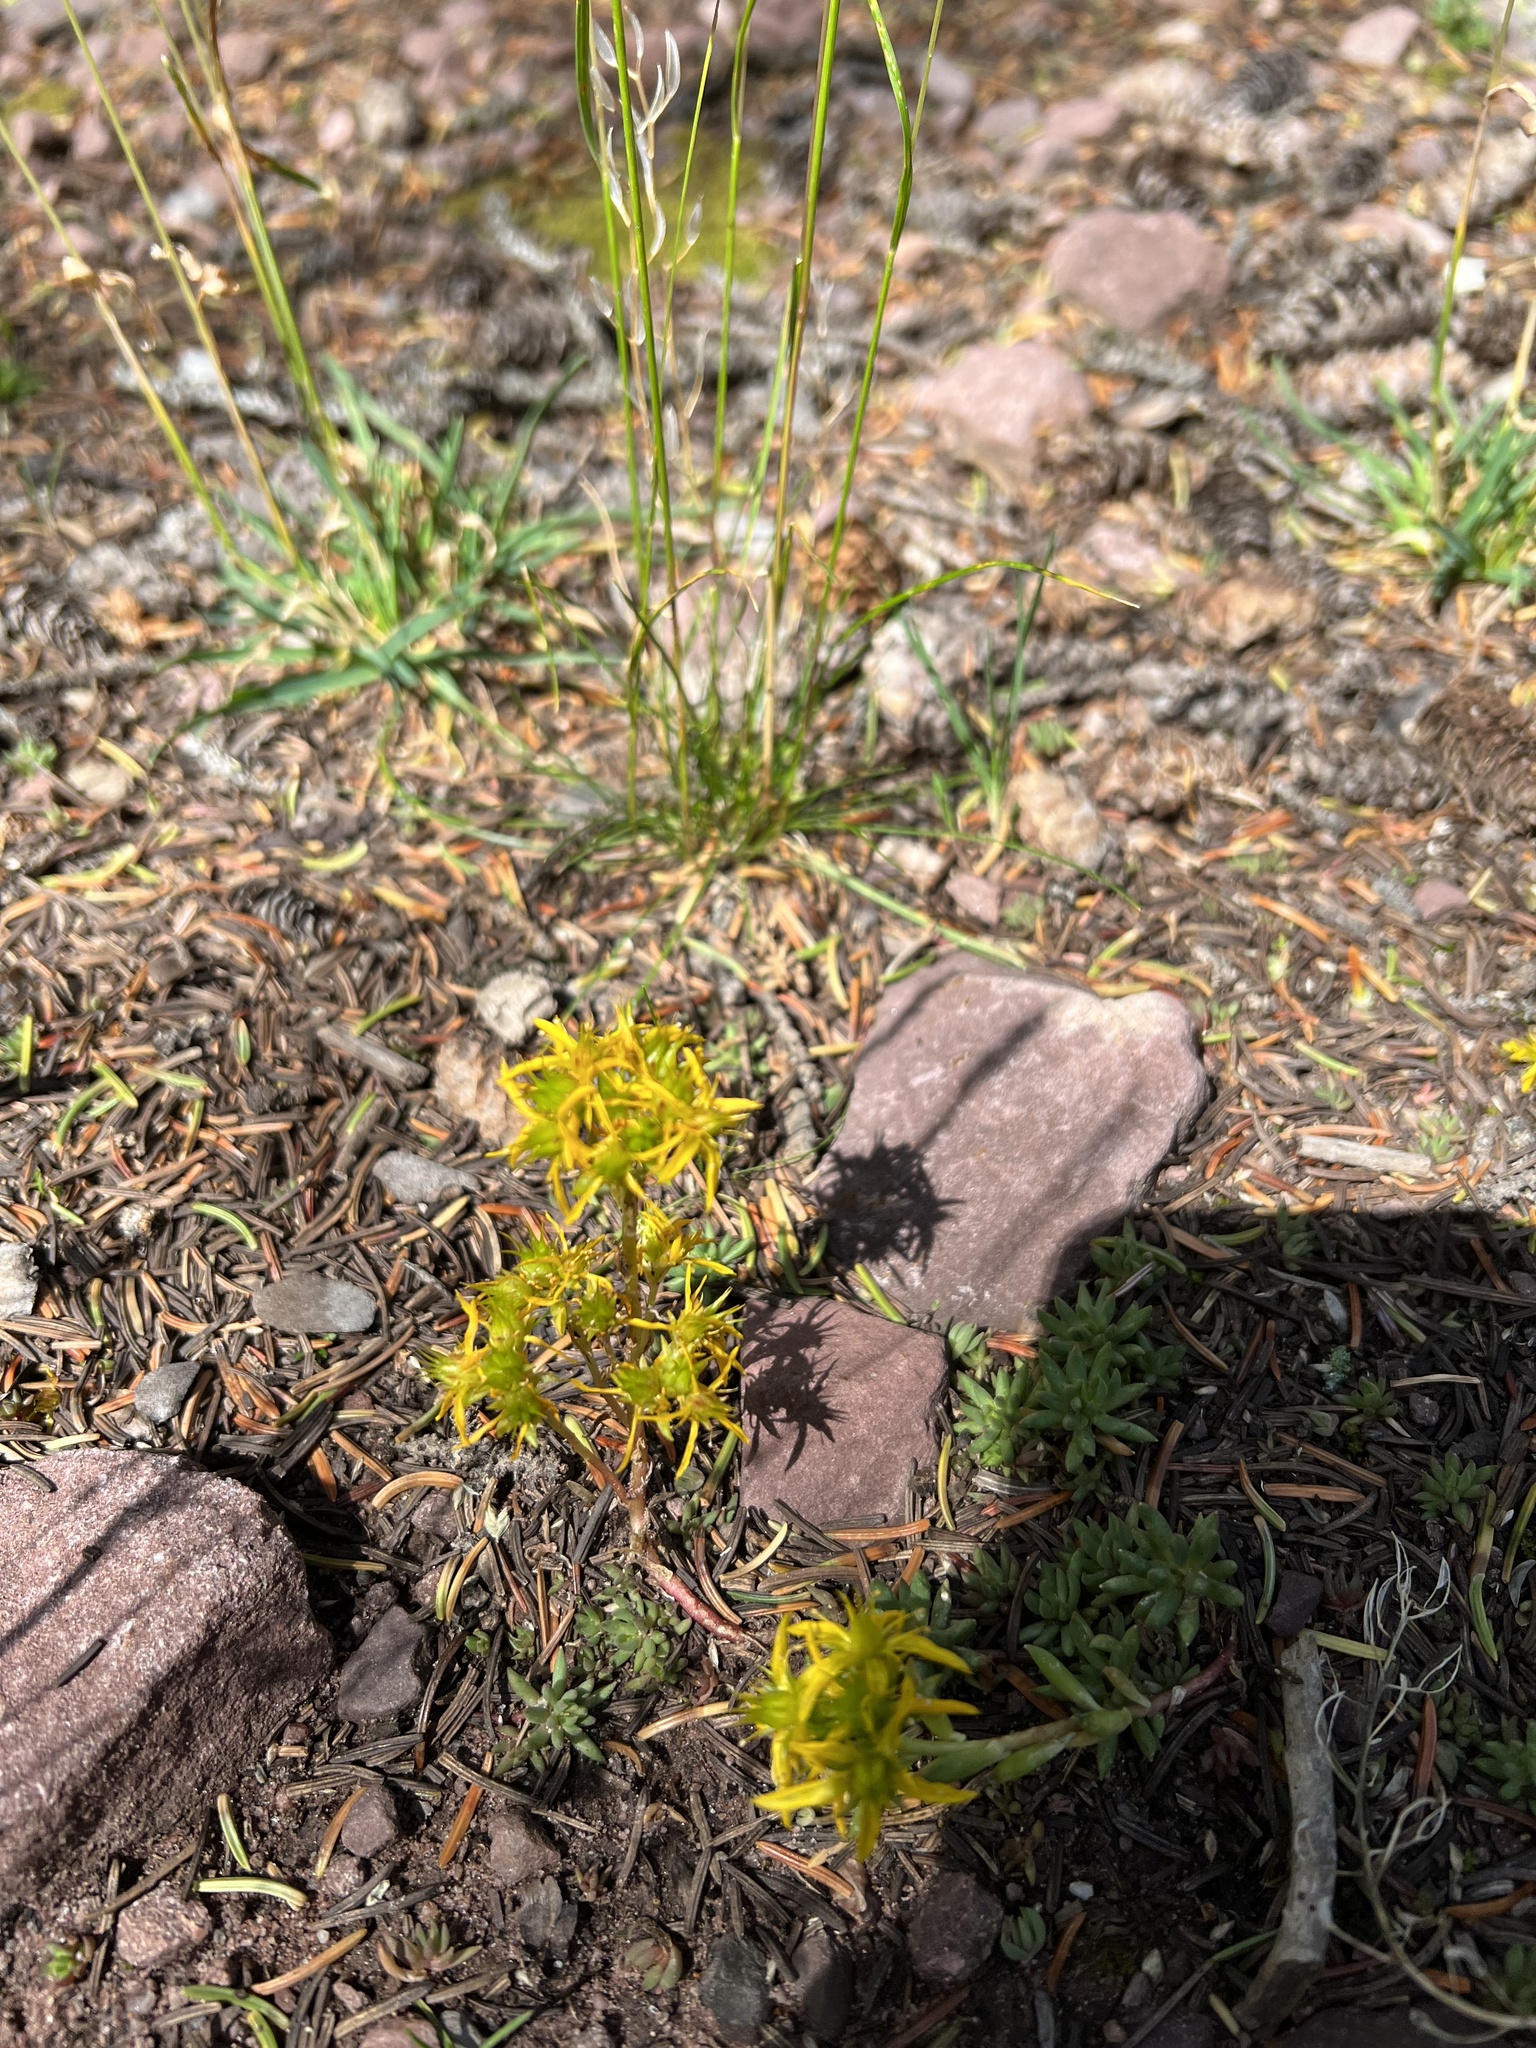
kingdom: Plantae
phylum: Tracheophyta
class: Magnoliopsida
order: Saxifragales
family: Crassulaceae
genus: Sedum
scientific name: Sedum lanceolatum
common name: Common stonecrop
